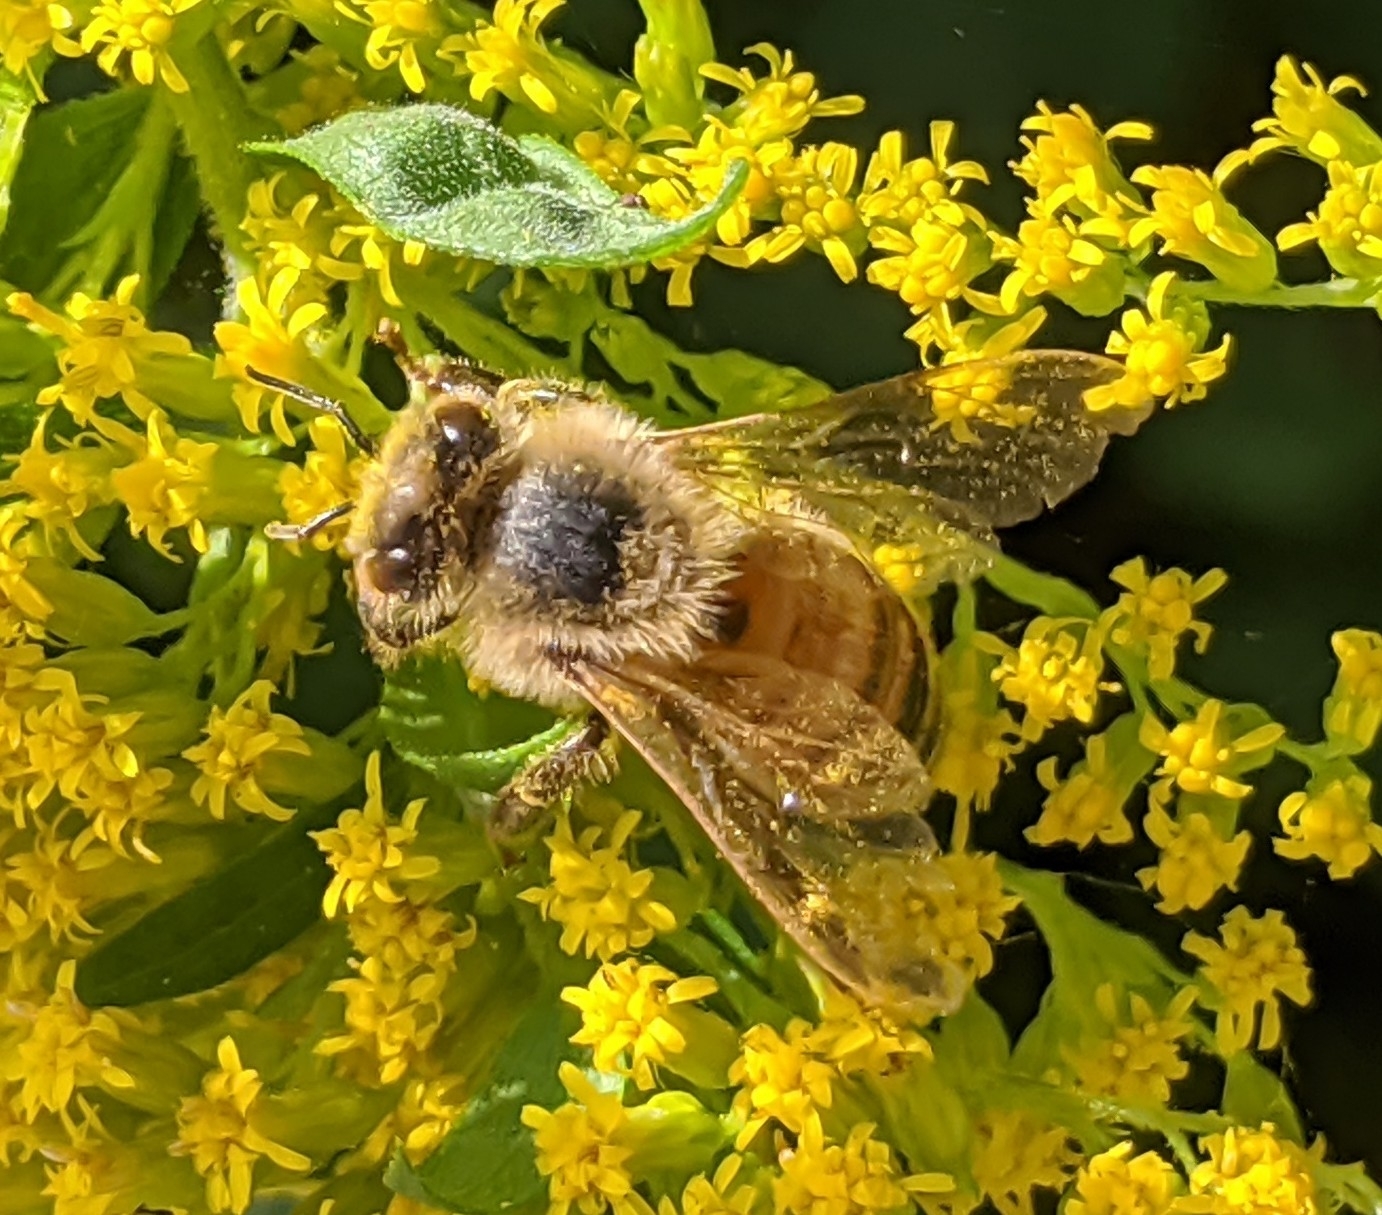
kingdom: Animalia
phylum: Arthropoda
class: Insecta
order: Hymenoptera
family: Apidae
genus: Apis
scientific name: Apis mellifera
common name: Honey bee
